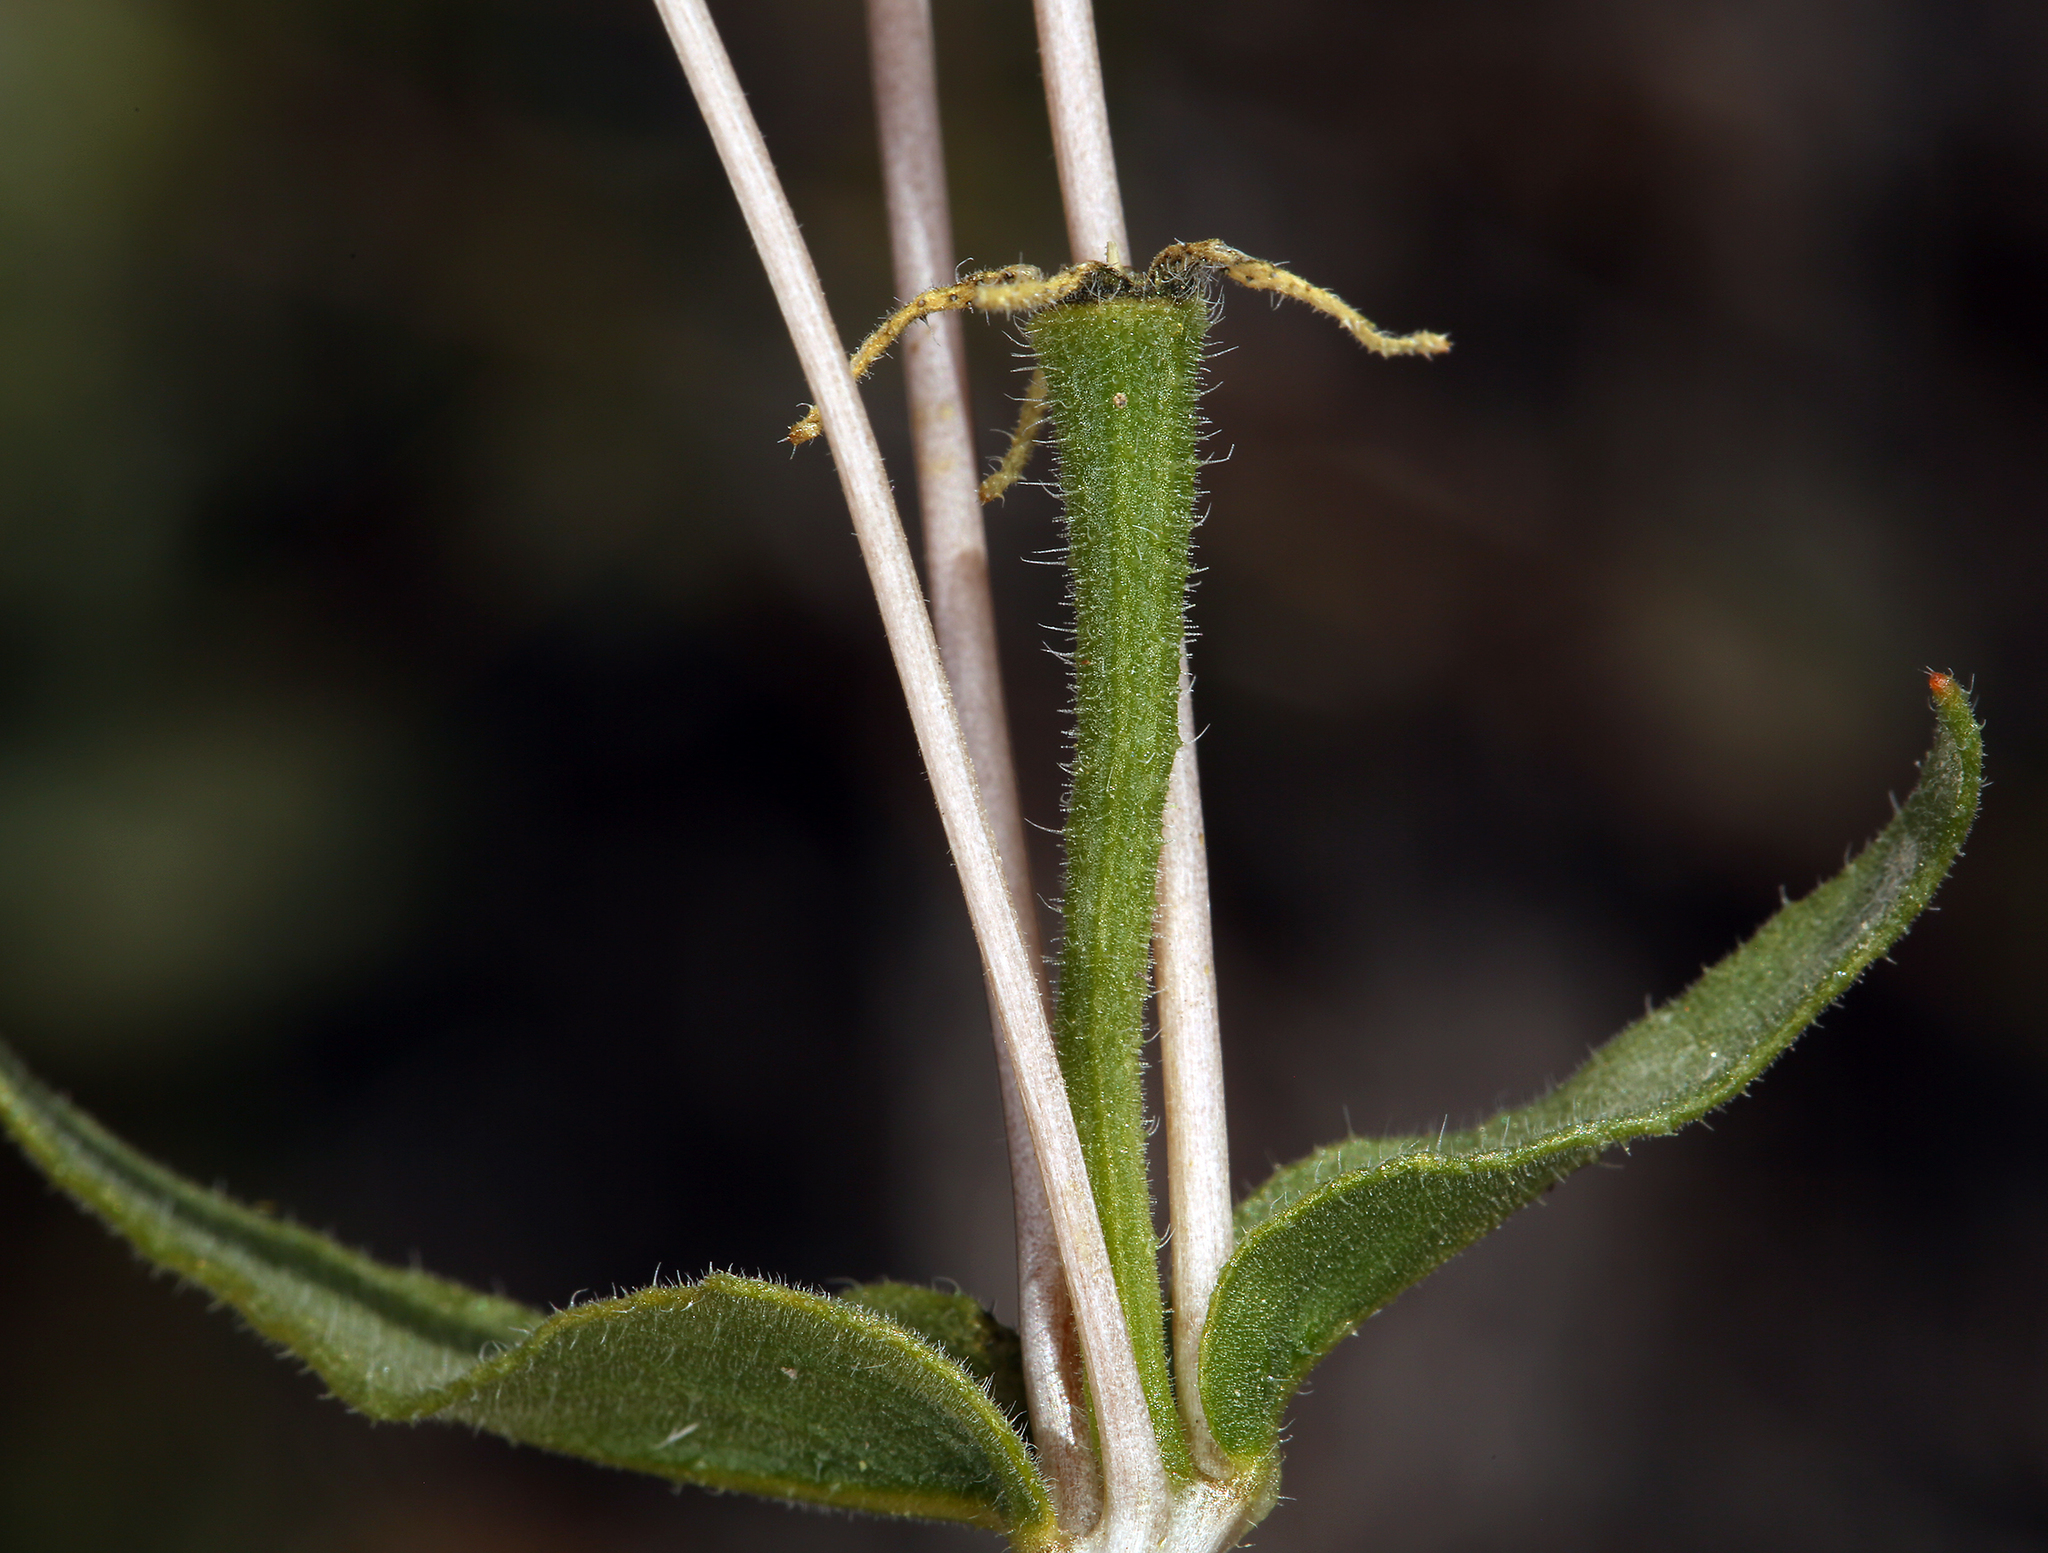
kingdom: Plantae
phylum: Tracheophyta
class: Magnoliopsida
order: Cornales
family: Loasaceae
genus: Mentzelia
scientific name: Mentzelia nitens
